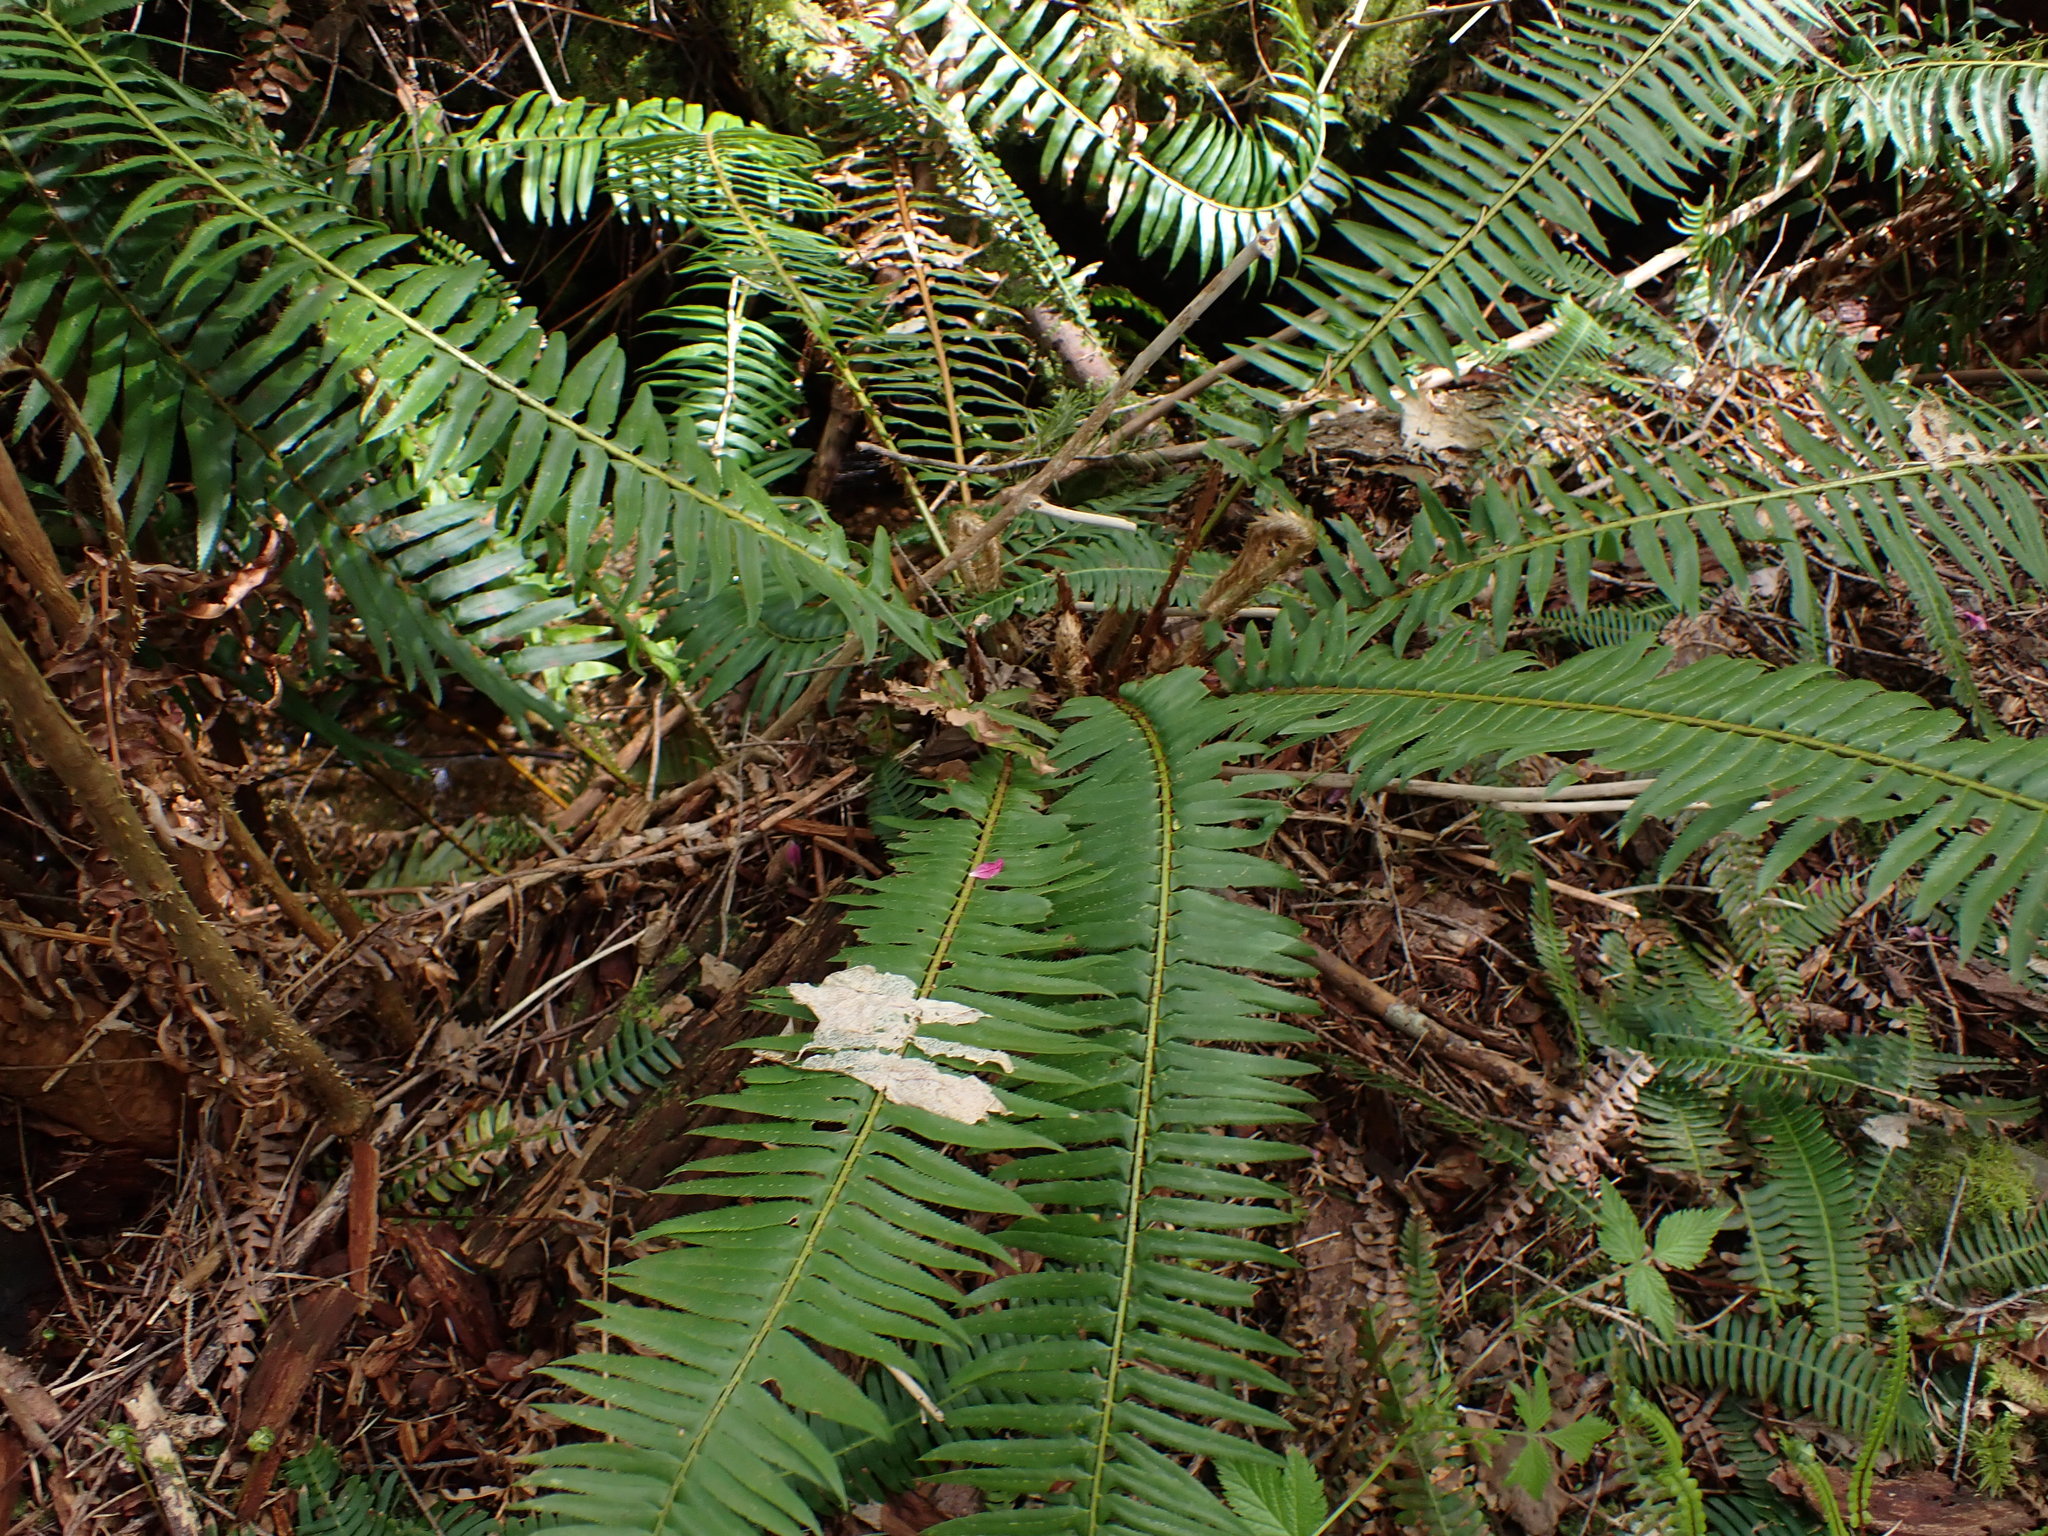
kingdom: Plantae
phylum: Tracheophyta
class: Polypodiopsida
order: Polypodiales
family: Dryopteridaceae
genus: Polystichum
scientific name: Polystichum munitum
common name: Western sword-fern
